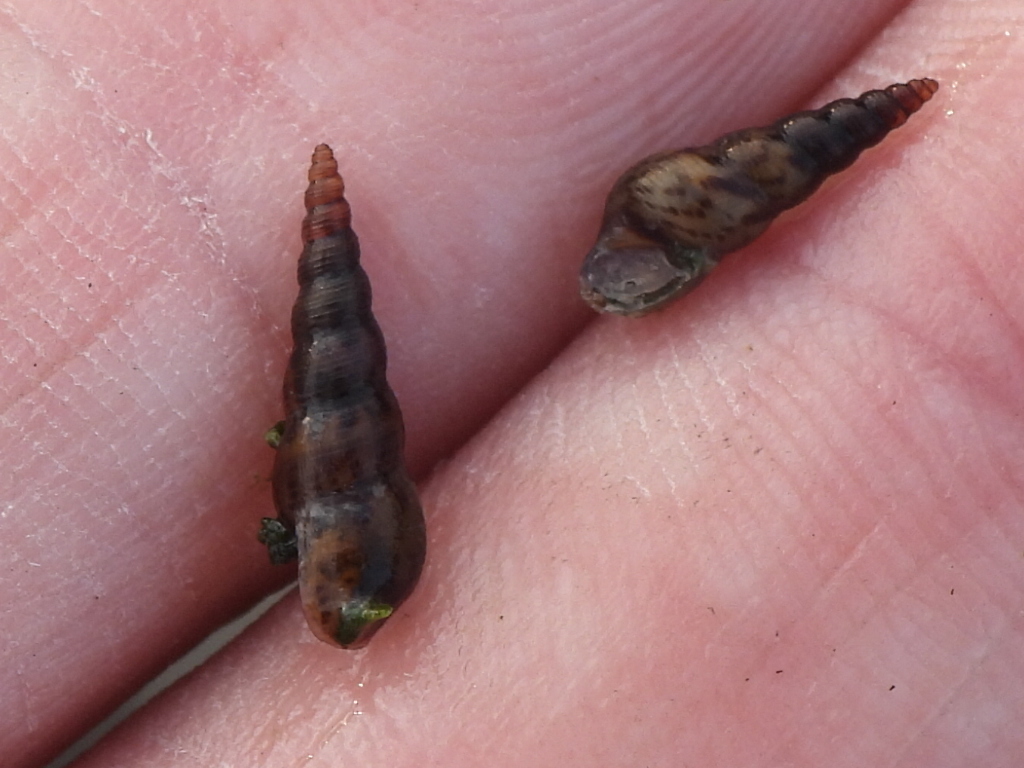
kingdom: Animalia
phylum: Mollusca
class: Gastropoda
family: Thiaridae
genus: Melanoides
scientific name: Melanoides tuberculata
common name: Red-rim melania
